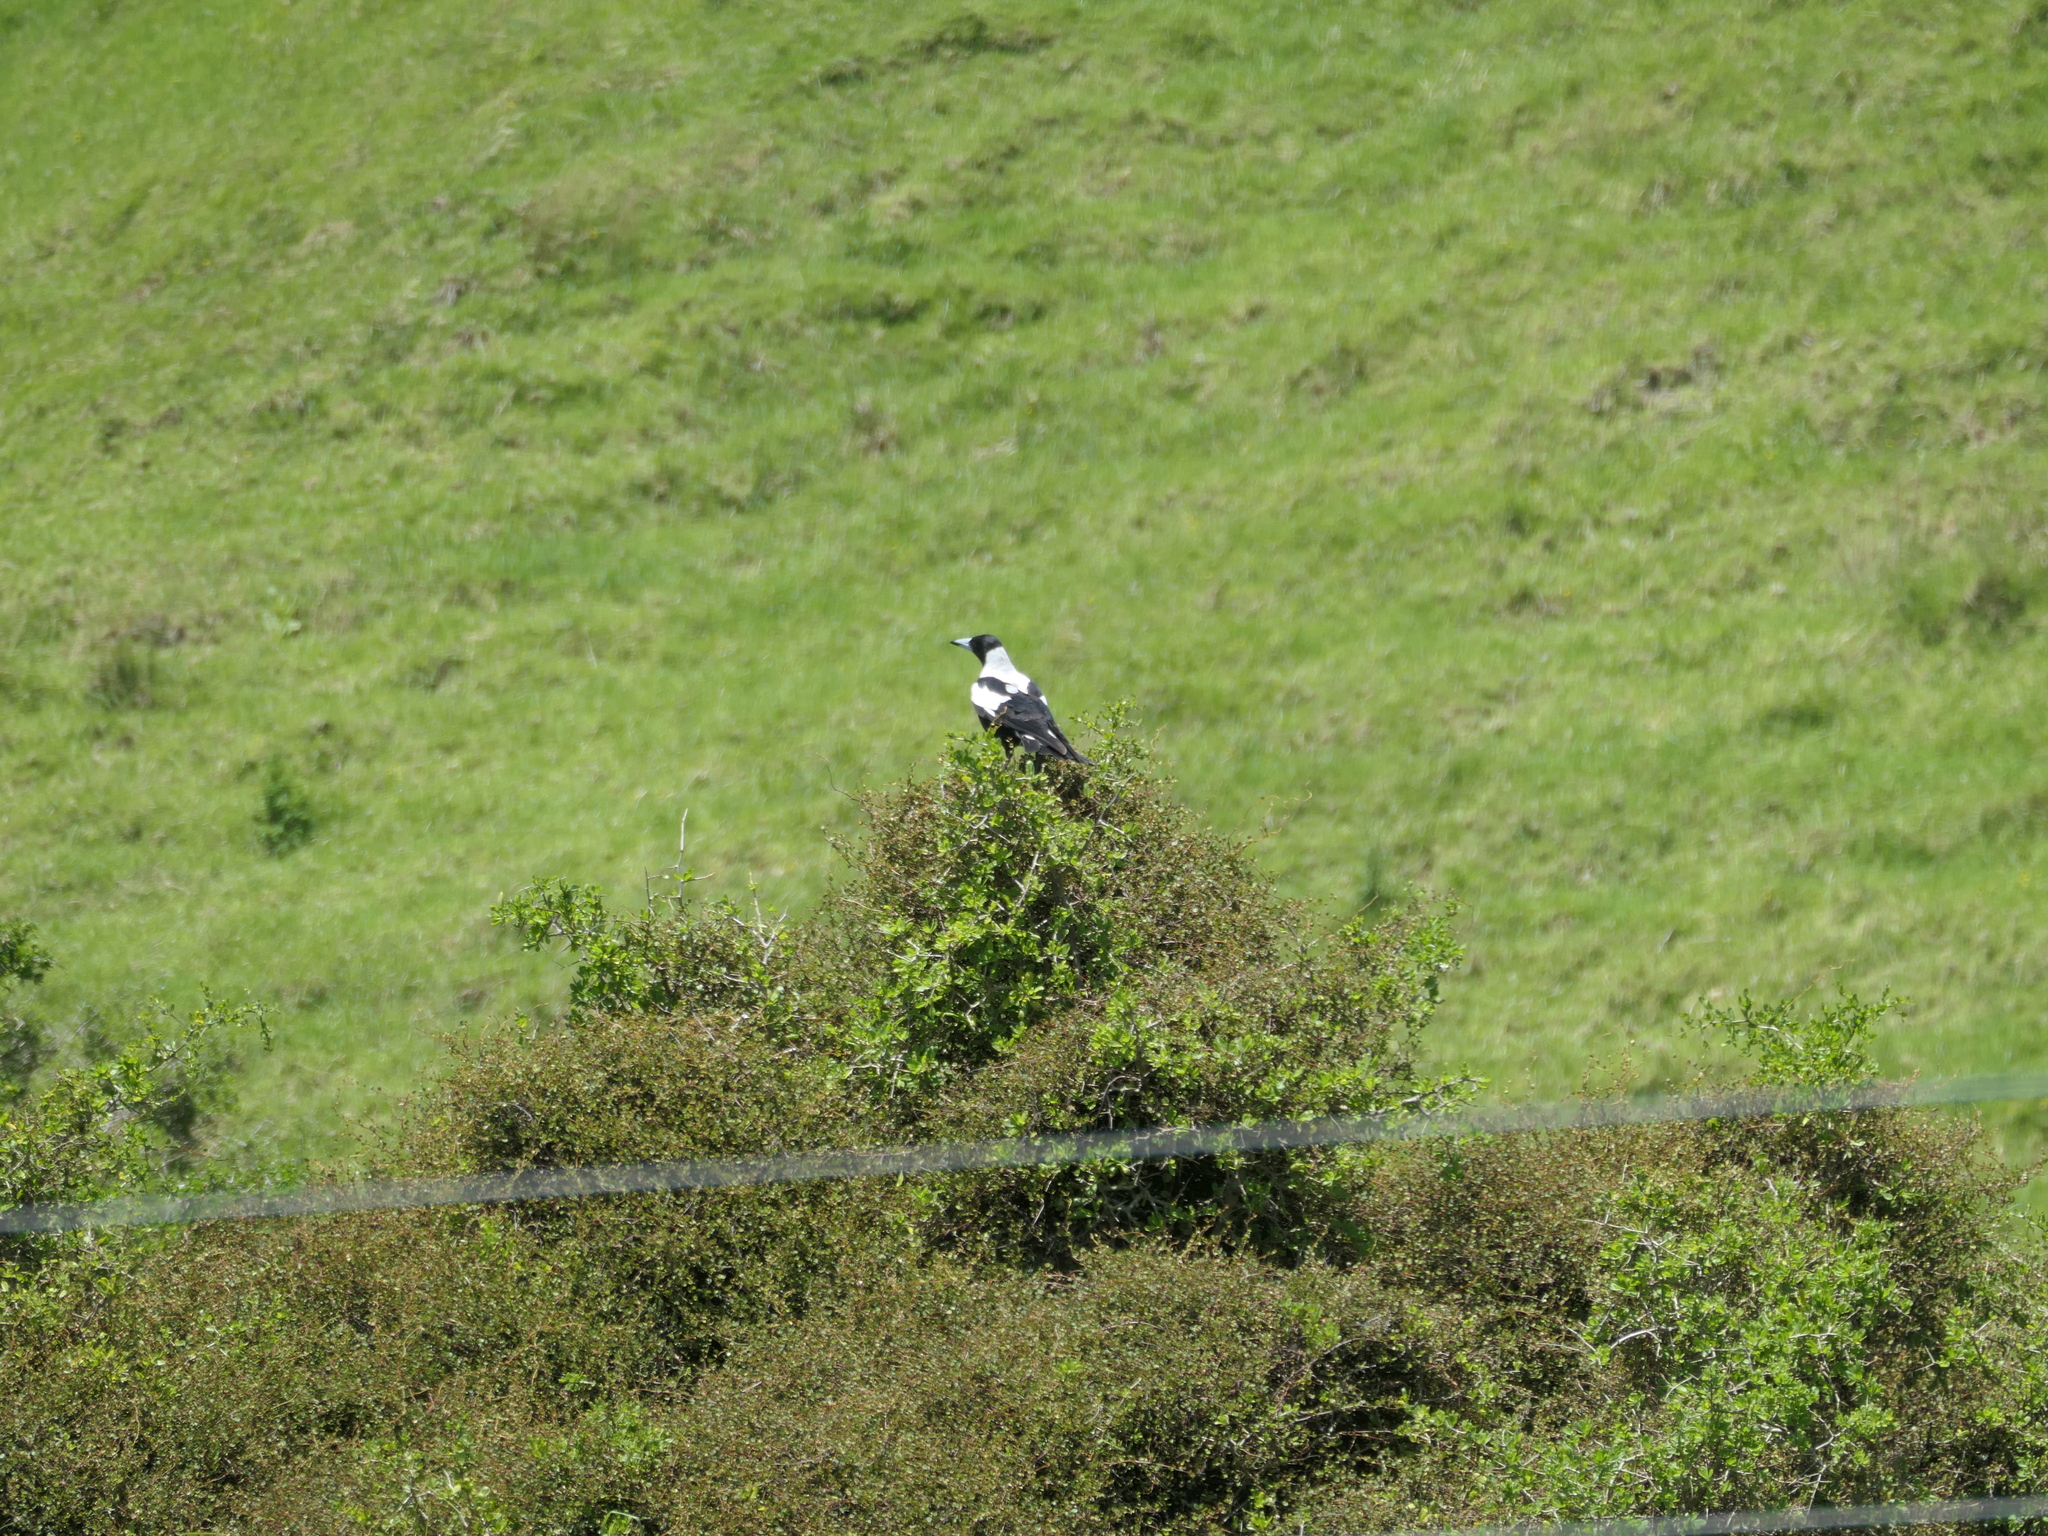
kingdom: Animalia
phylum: Chordata
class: Aves
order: Passeriformes
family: Cracticidae
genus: Gymnorhina
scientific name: Gymnorhina tibicen
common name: Australian magpie
